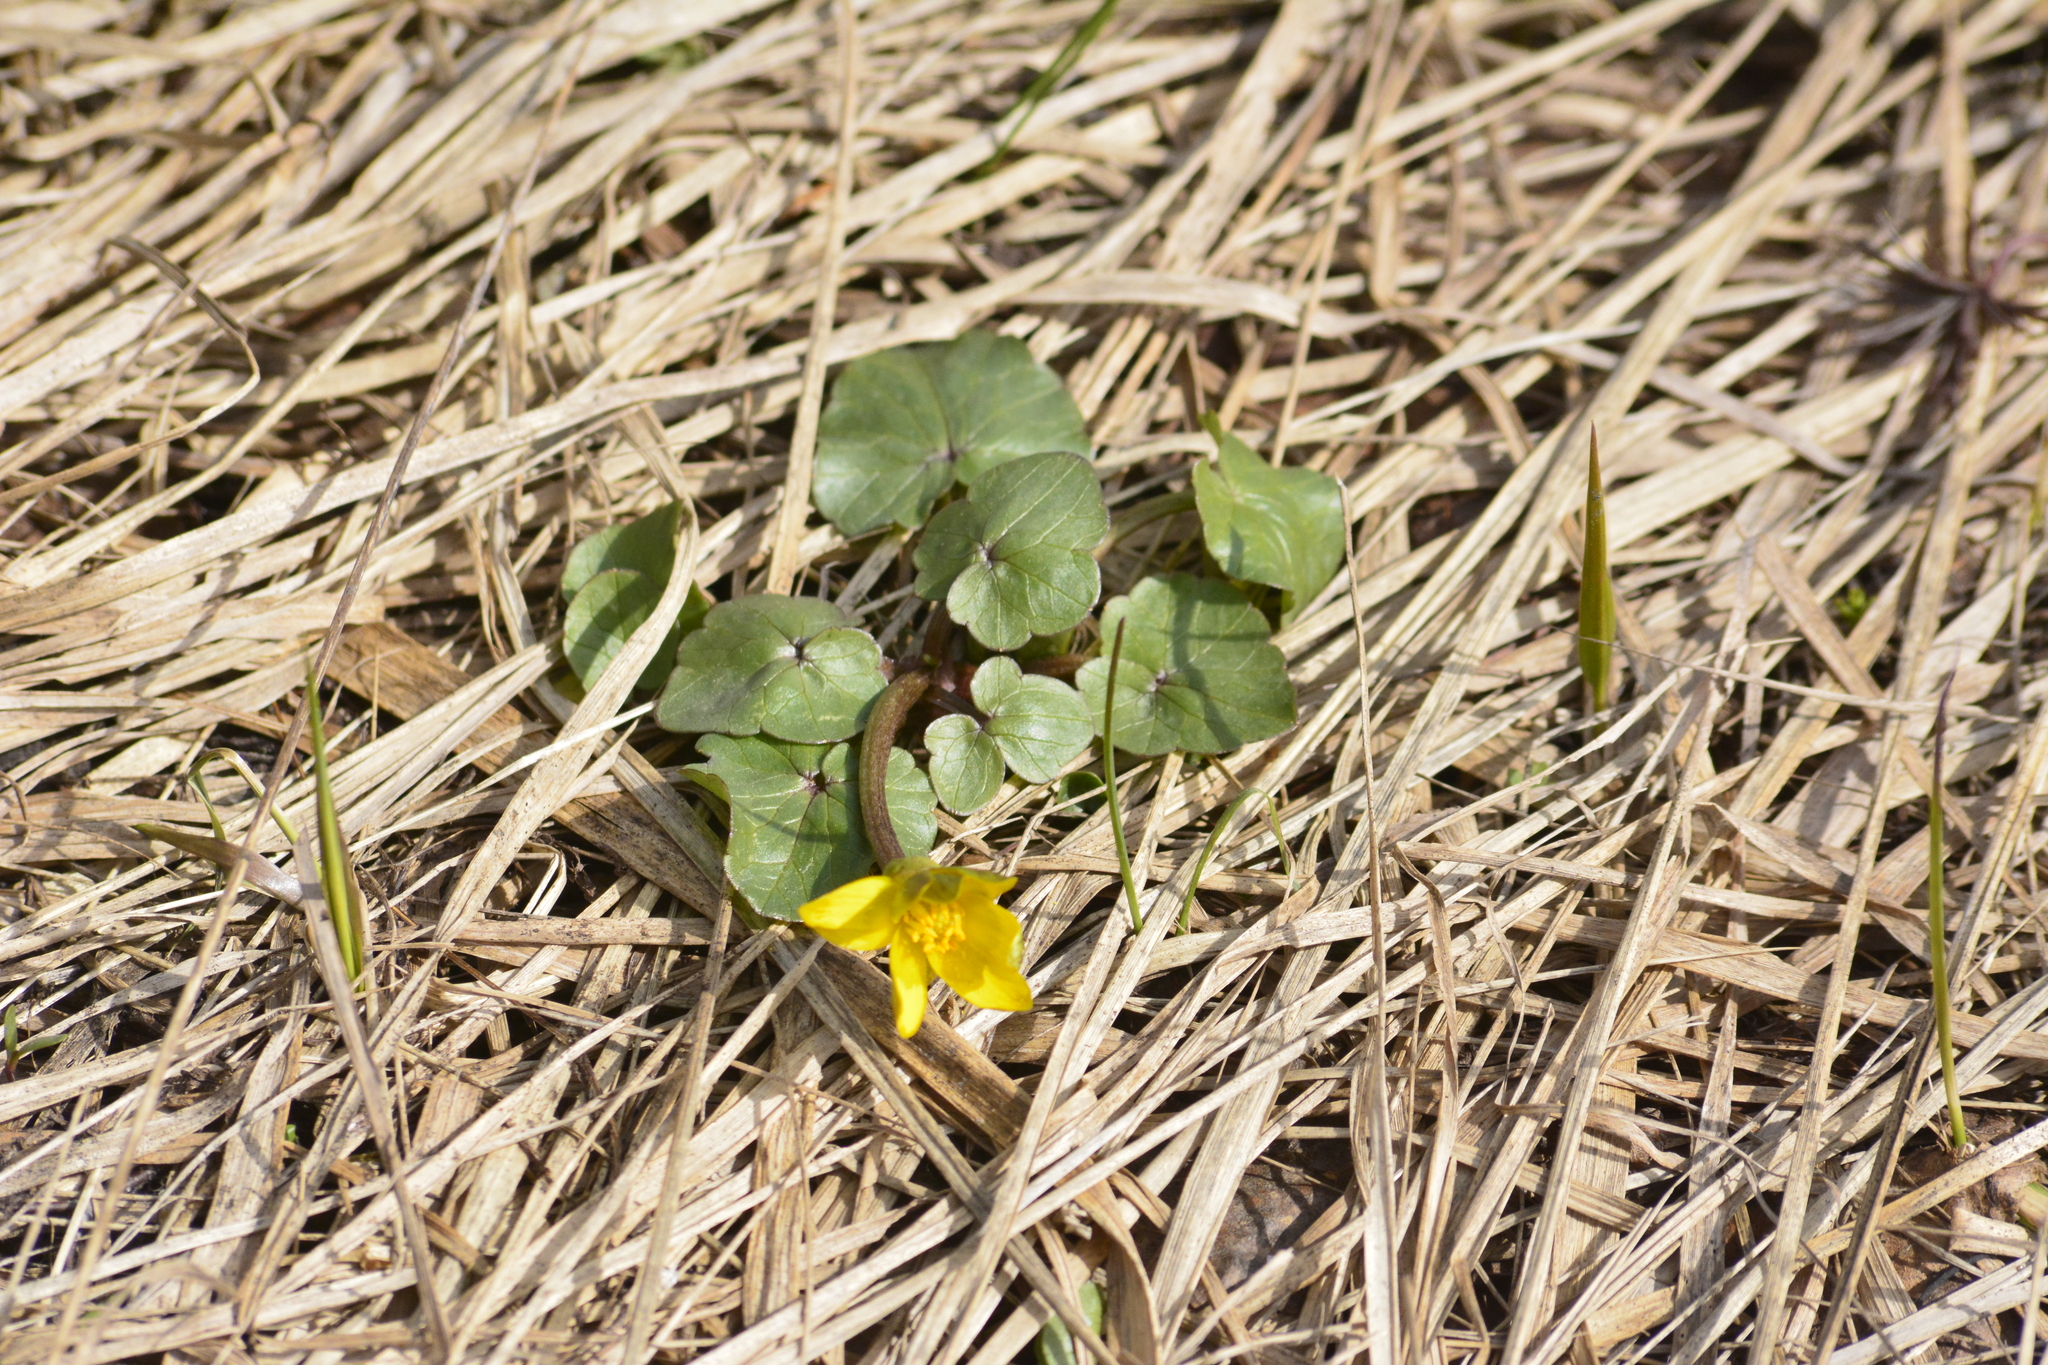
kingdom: Plantae
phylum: Tracheophyta
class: Magnoliopsida
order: Ranunculales
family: Ranunculaceae
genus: Ficaria
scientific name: Ficaria verna
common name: Lesser celandine
